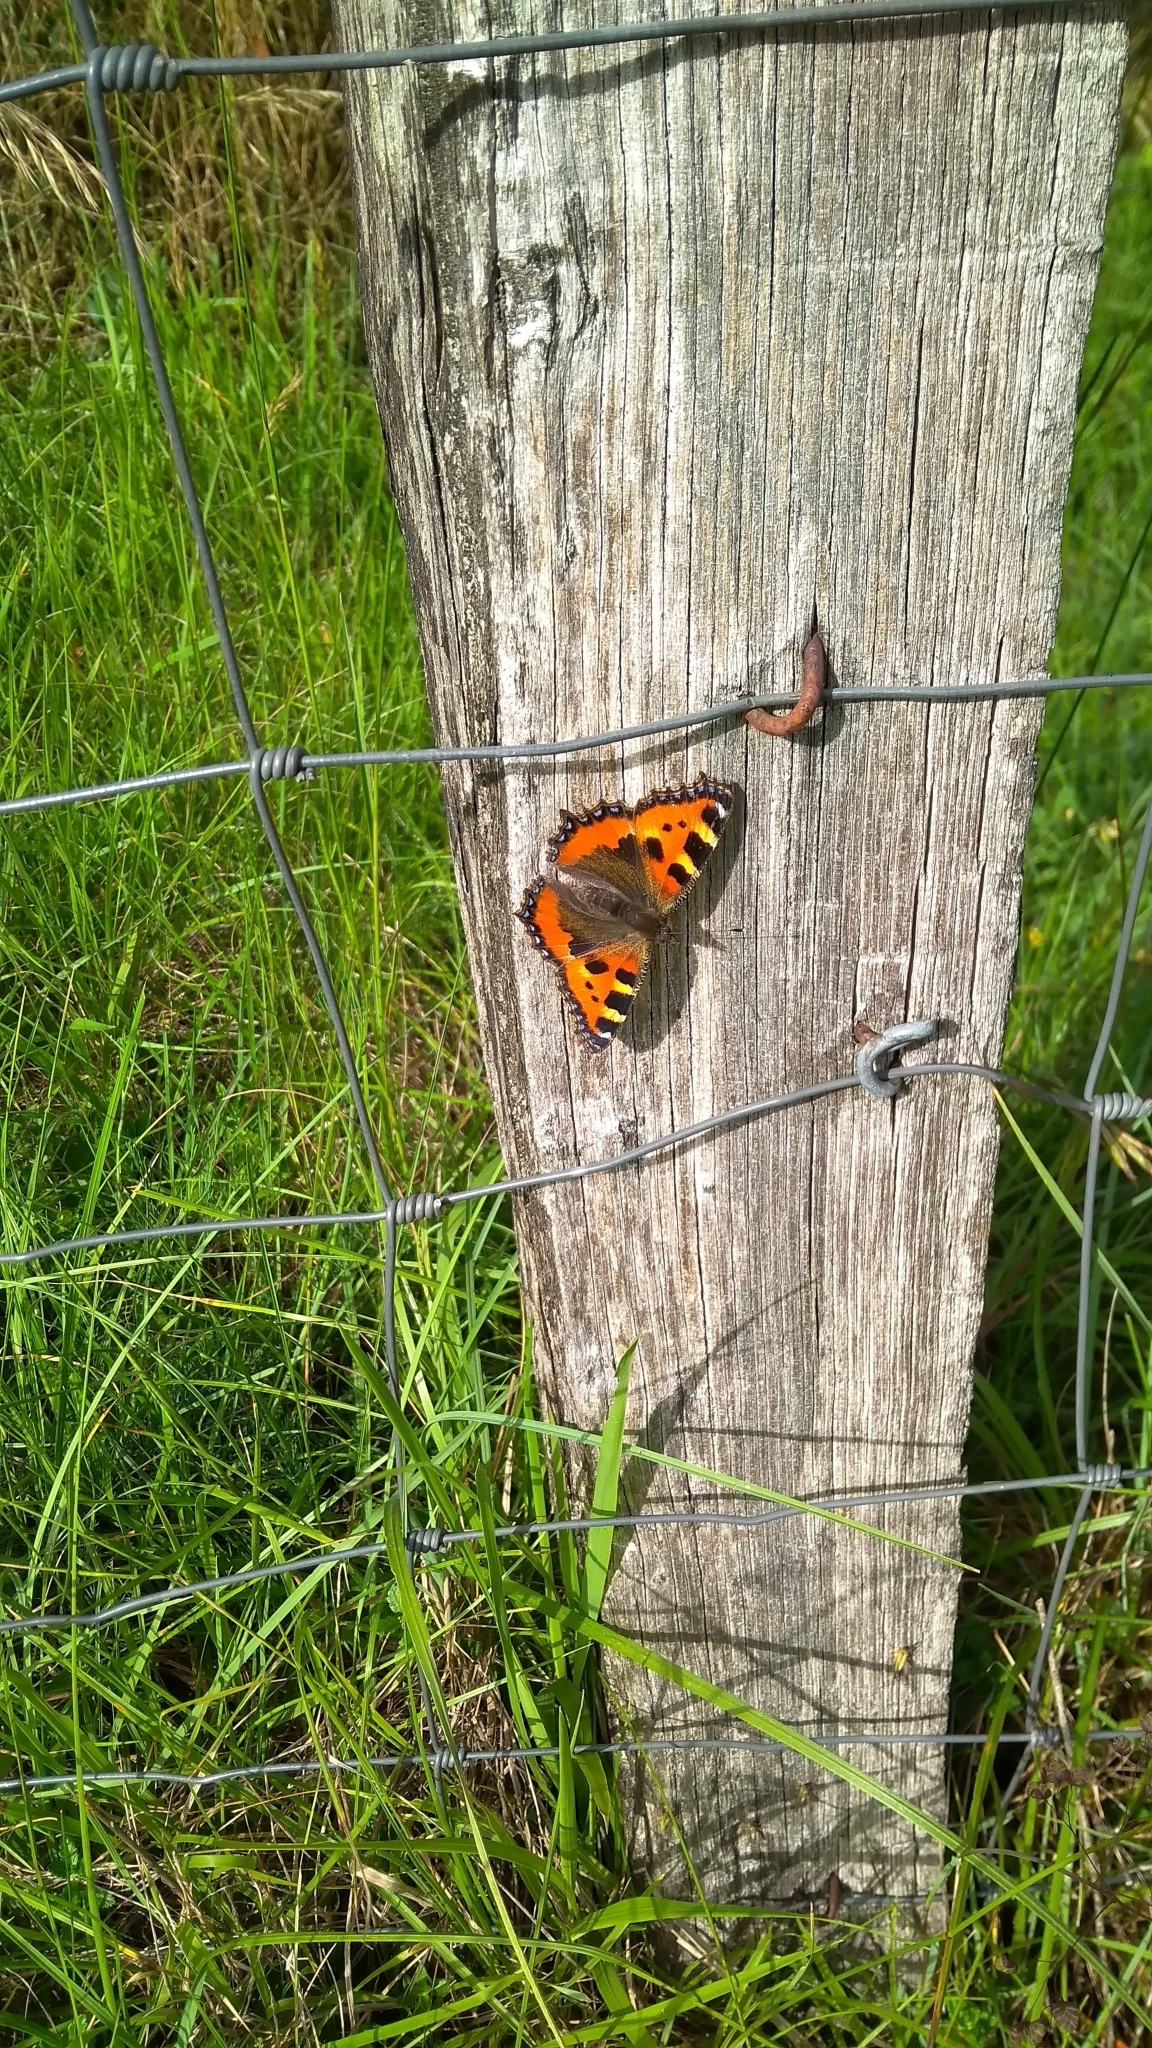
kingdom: Animalia
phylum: Arthropoda
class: Insecta
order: Lepidoptera
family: Nymphalidae
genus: Aglais
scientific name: Aglais urticae
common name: Small tortoiseshell
